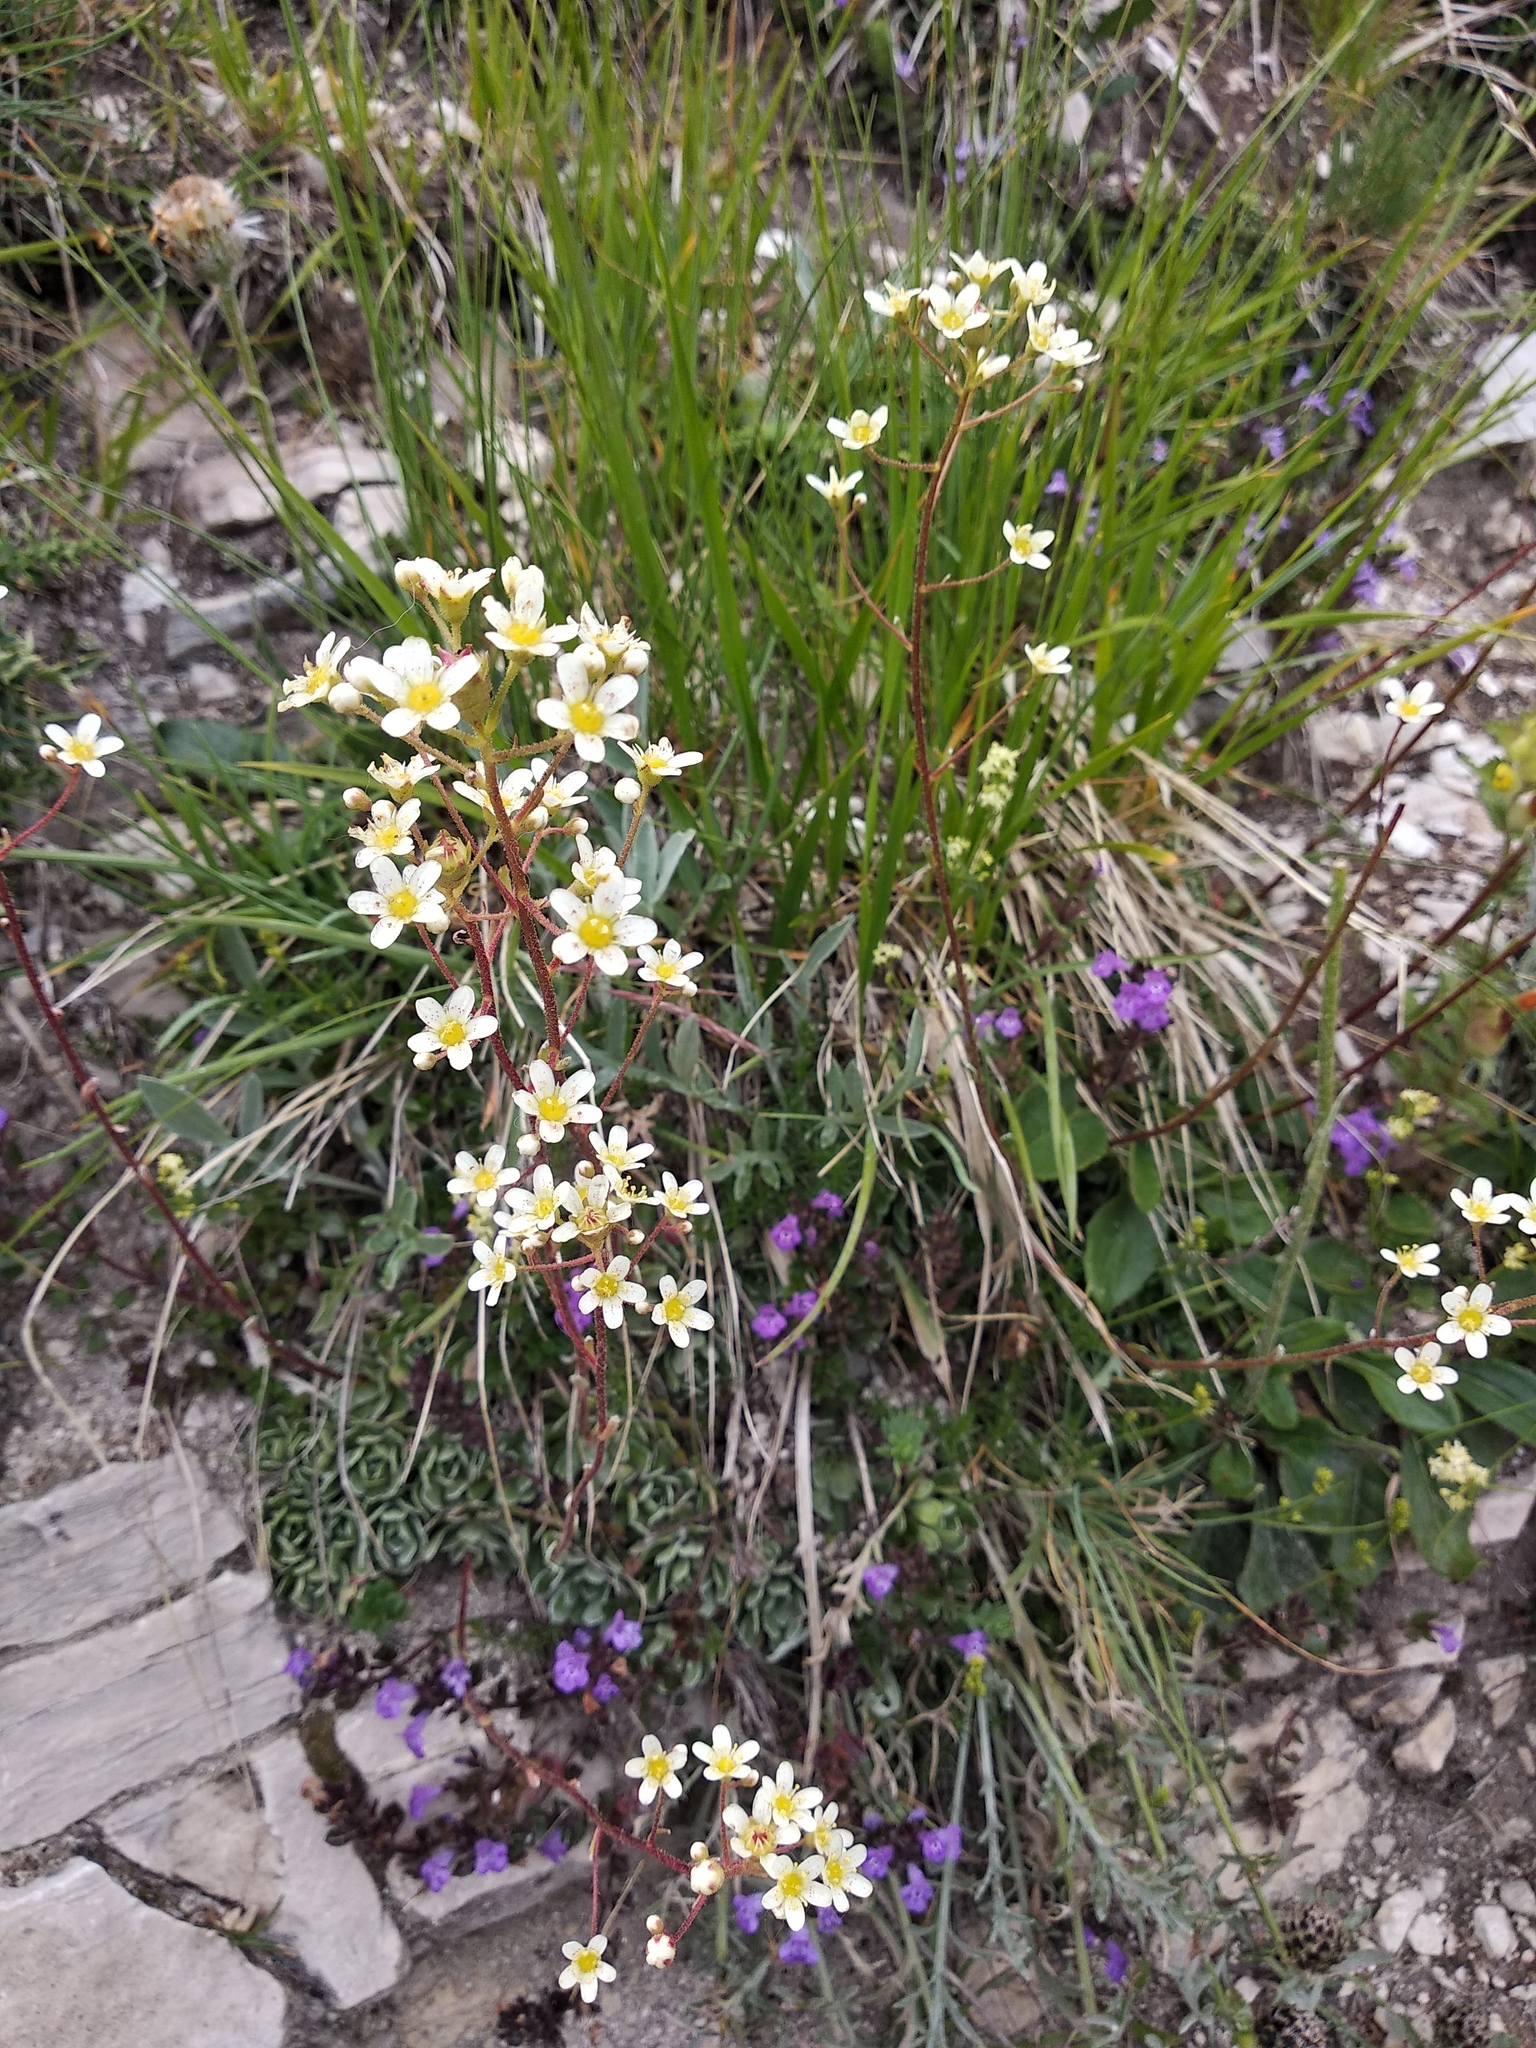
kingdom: Plantae
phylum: Tracheophyta
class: Magnoliopsida
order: Saxifragales
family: Saxifragaceae
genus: Saxifraga
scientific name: Saxifraga paniculata
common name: Livelong saxifrage
